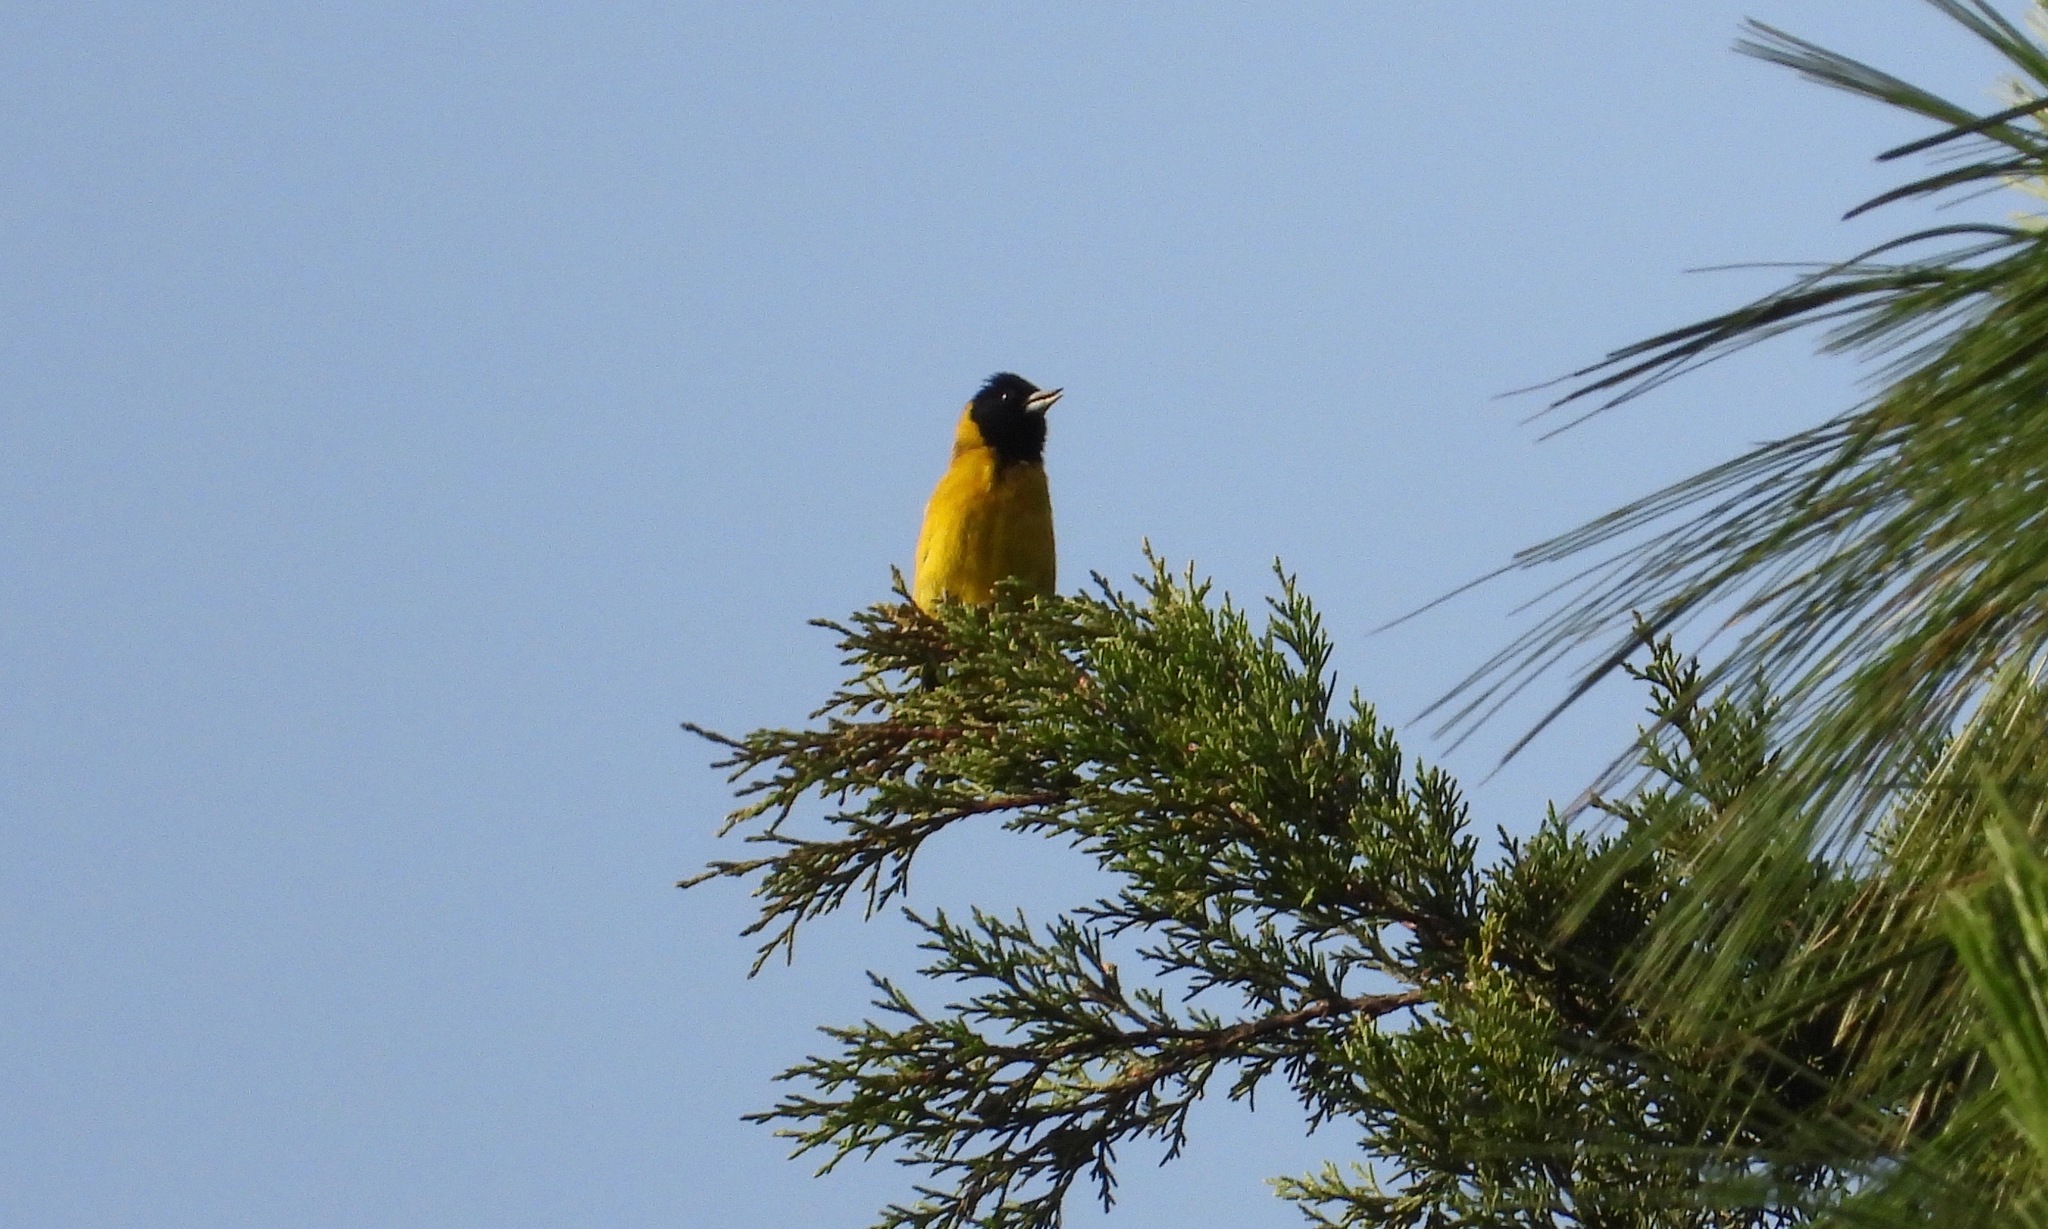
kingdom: Animalia
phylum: Chordata
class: Aves
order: Passeriformes
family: Fringillidae
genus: Spinus
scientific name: Spinus notatus
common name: Black-headed siskin
